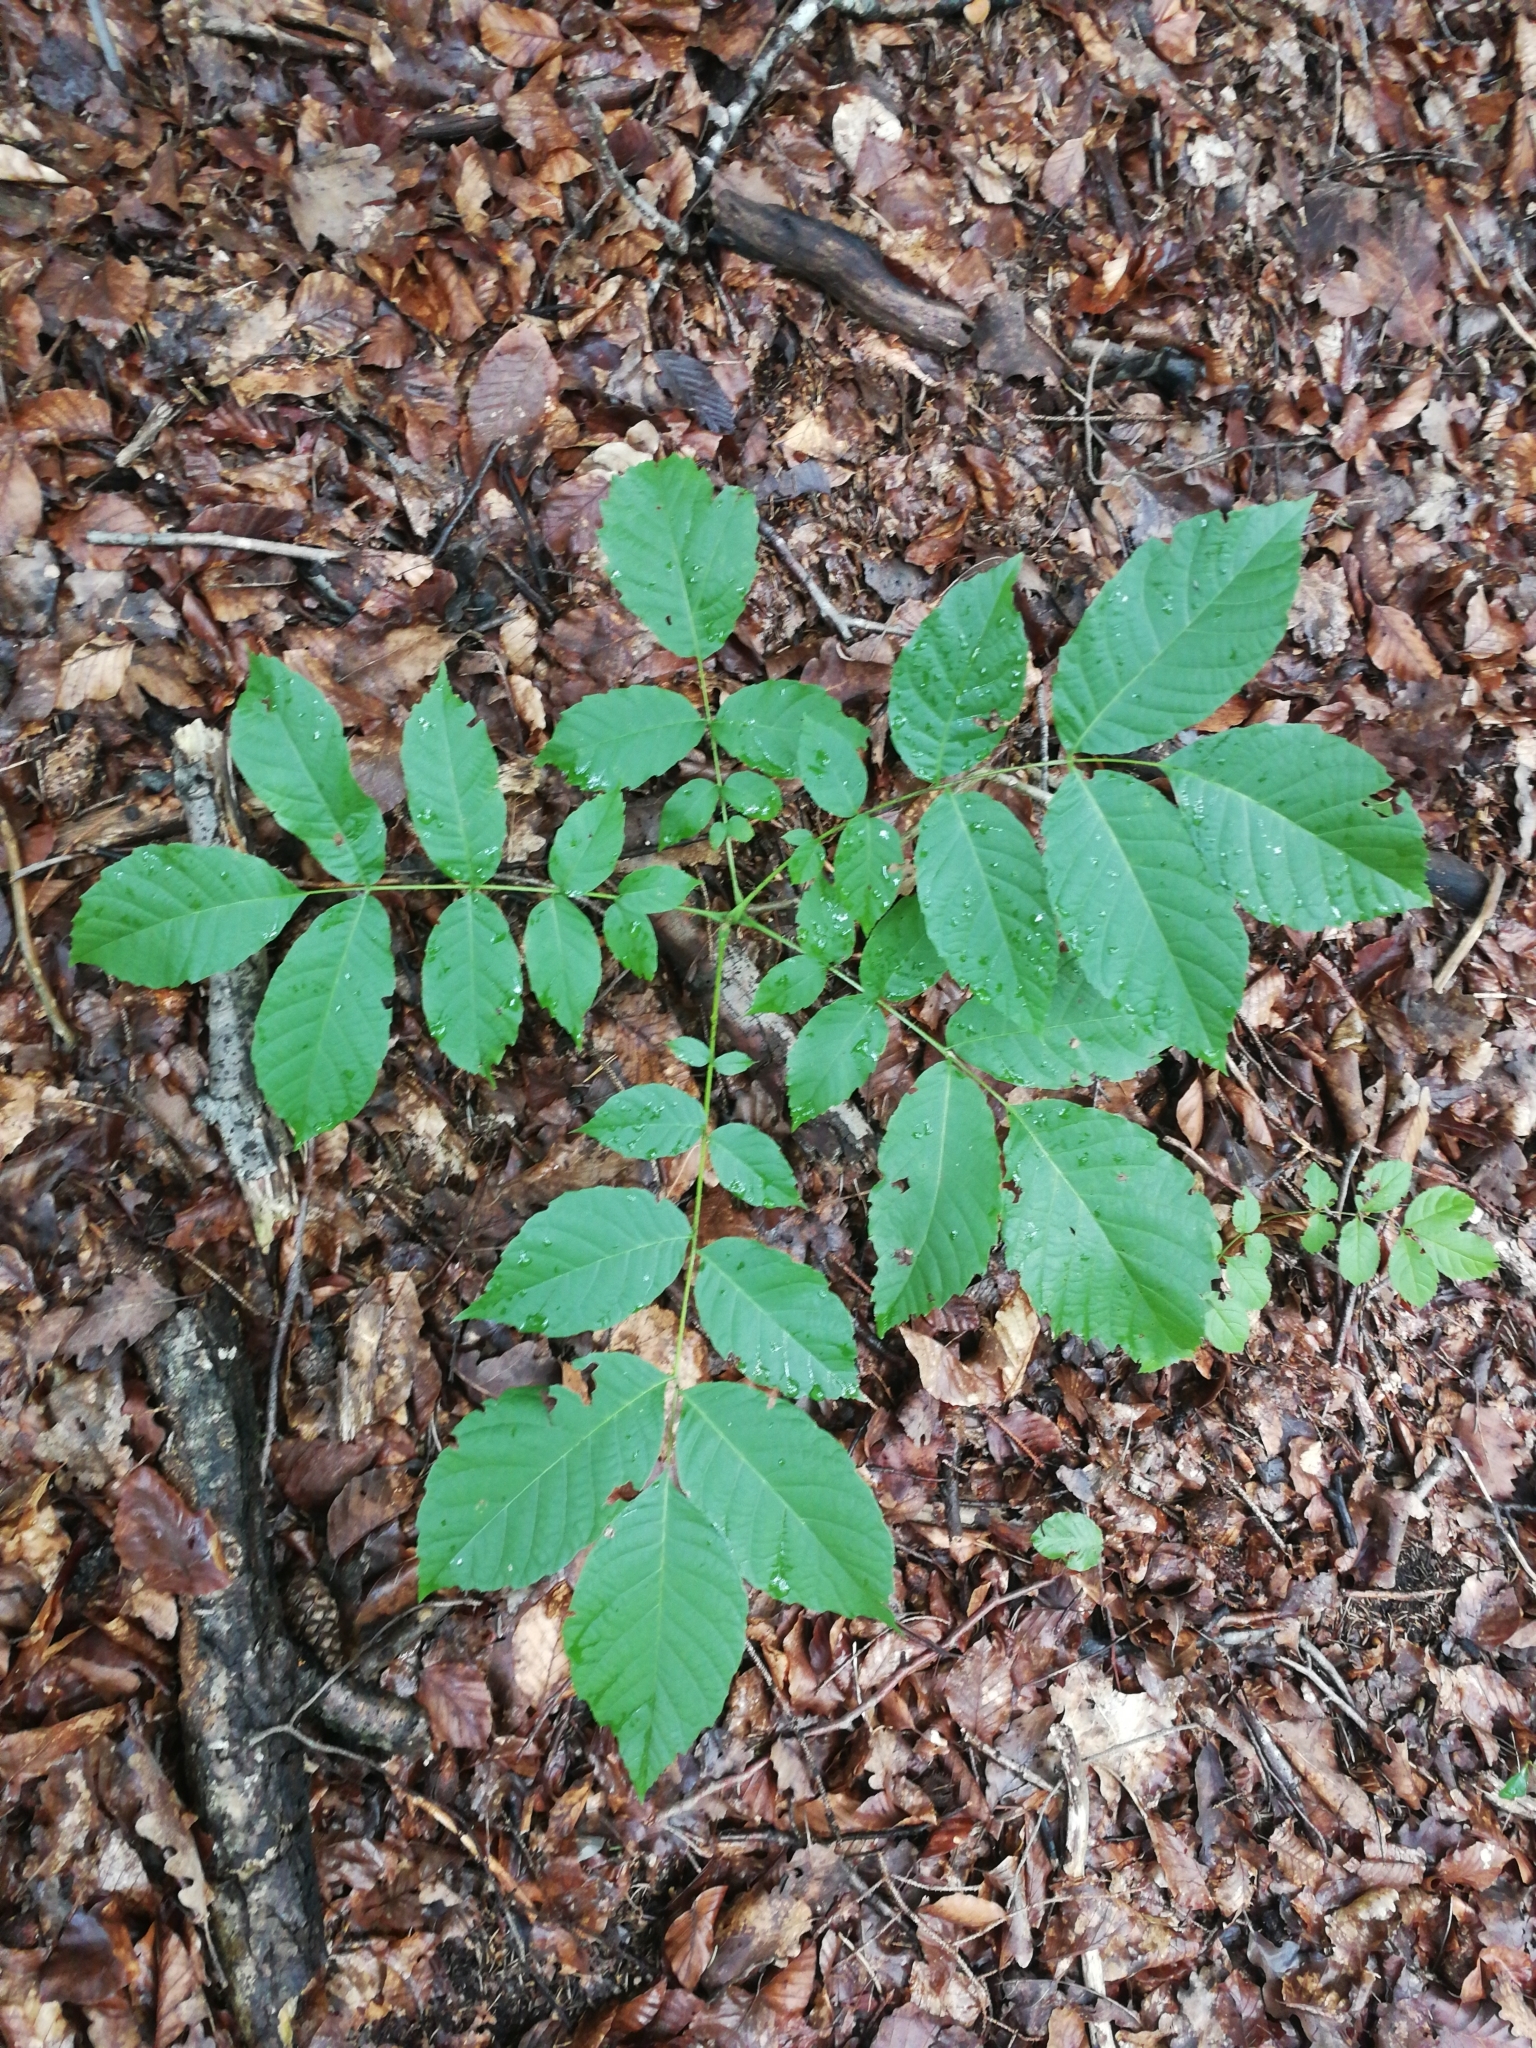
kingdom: Plantae
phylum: Tracheophyta
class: Magnoliopsida
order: Fagales
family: Juglandaceae
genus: Juglans
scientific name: Juglans regia
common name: Walnut
